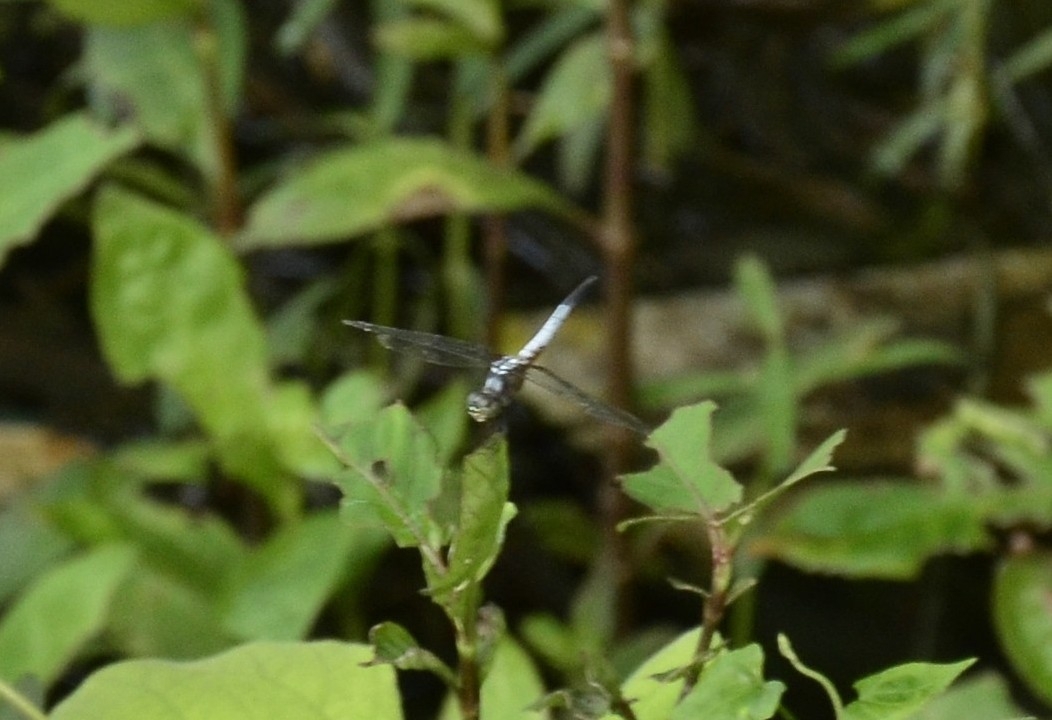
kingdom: Animalia
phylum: Arthropoda
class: Insecta
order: Odonata
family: Libellulidae
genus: Brachydiplax
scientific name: Brachydiplax chalybea
